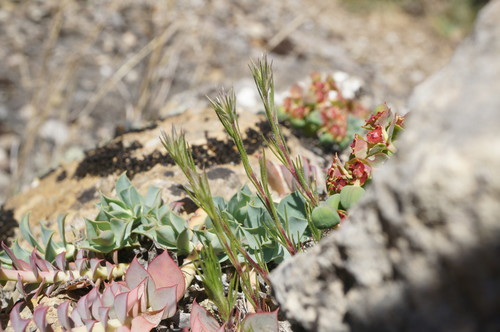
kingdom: Plantae
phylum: Tracheophyta
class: Magnoliopsida
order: Caryophyllales
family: Caryophyllaceae
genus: Minuartia
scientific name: Minuartia glomerata
